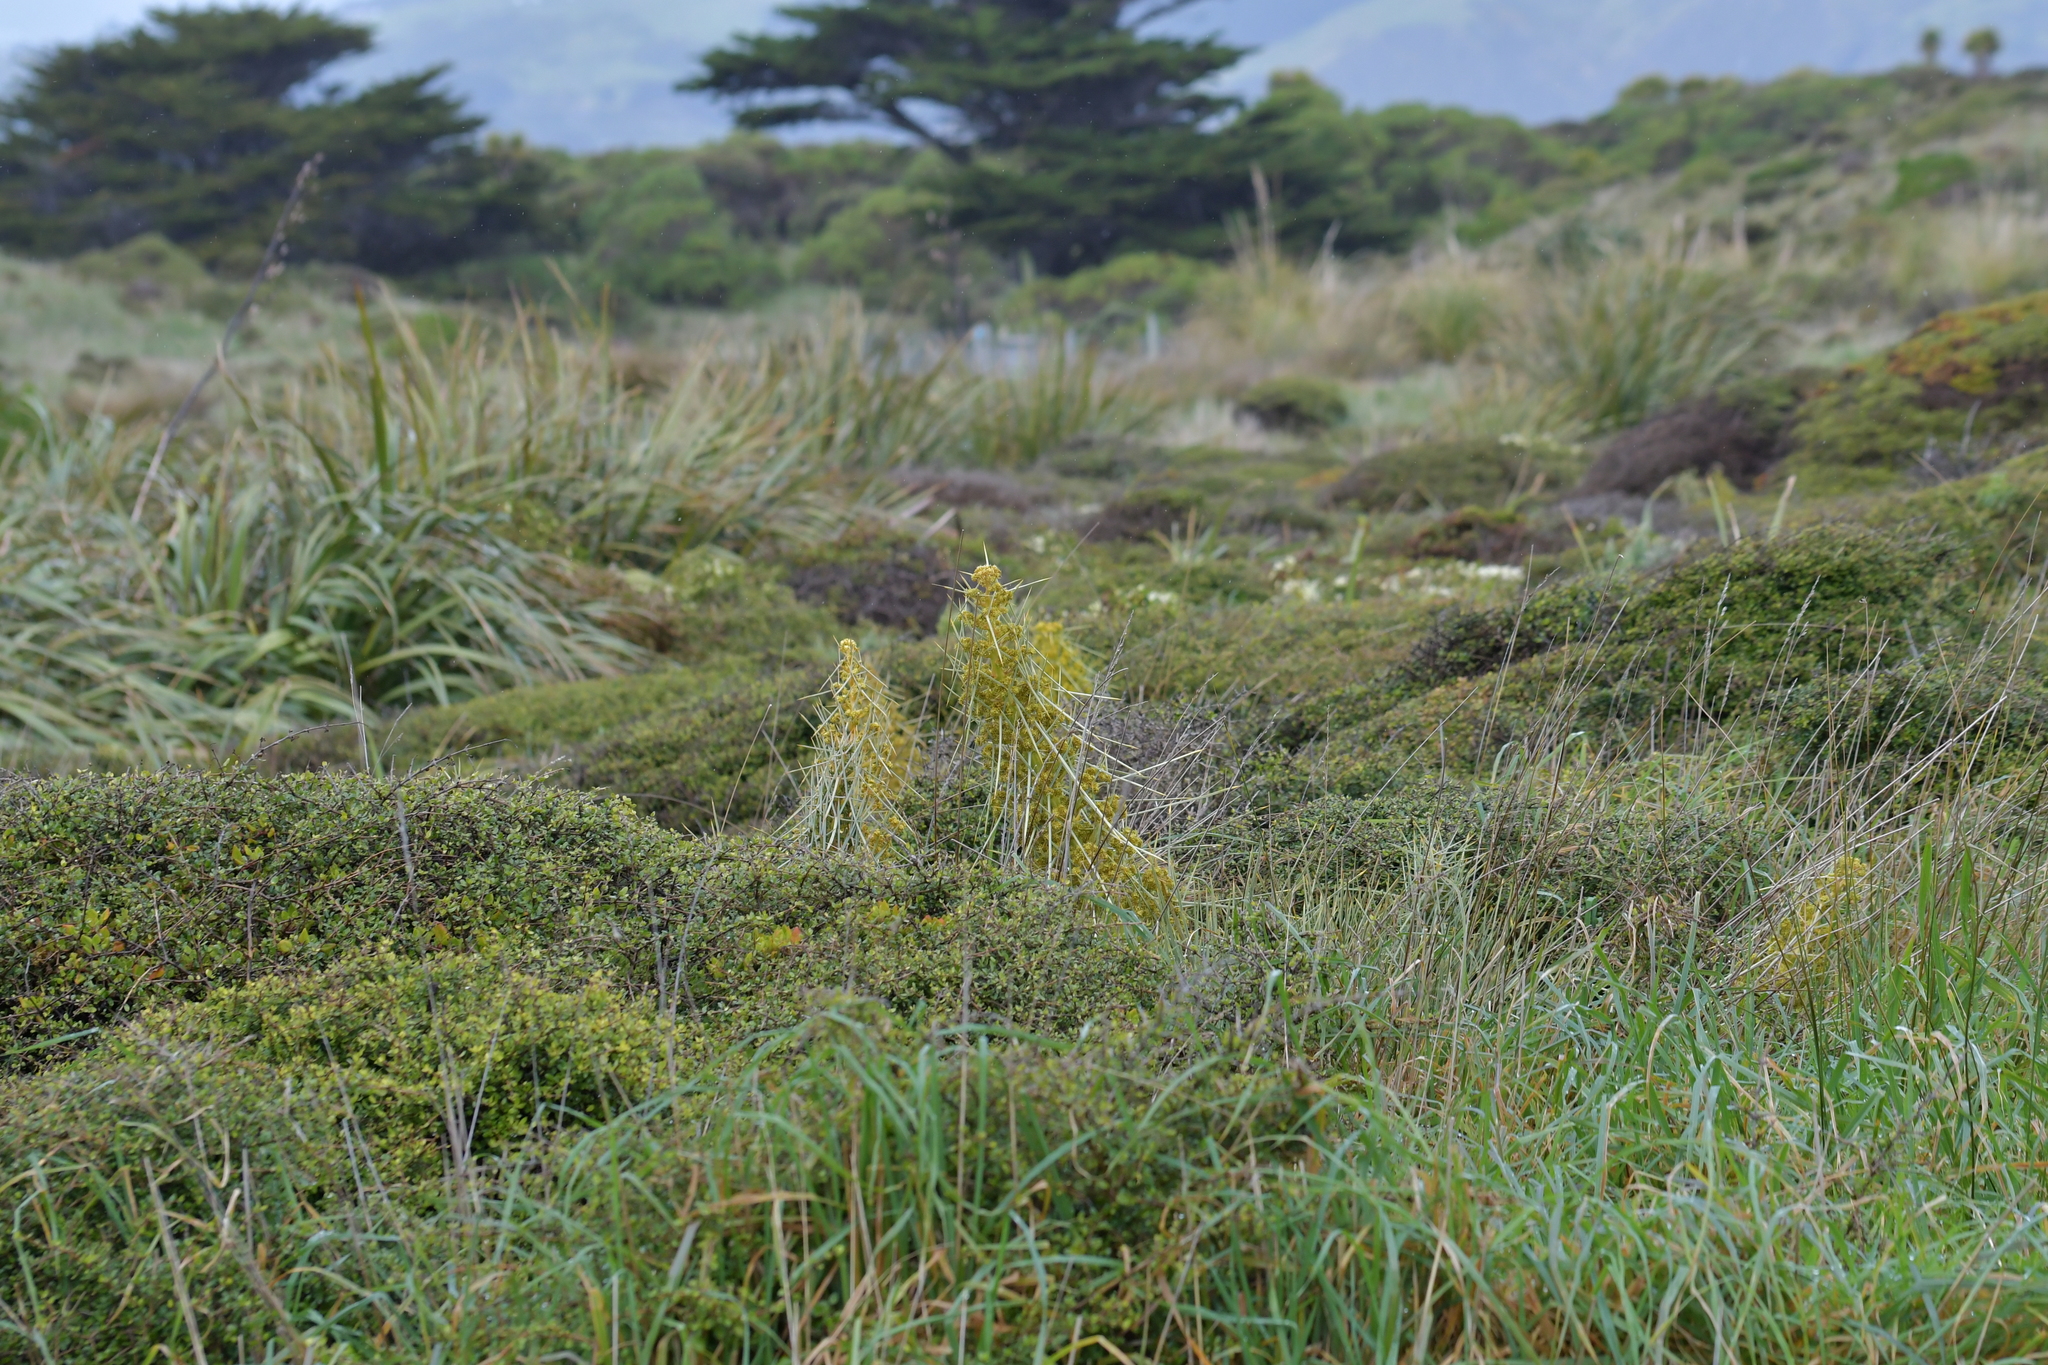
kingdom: Plantae
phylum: Tracheophyta
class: Magnoliopsida
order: Apiales
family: Apiaceae
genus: Aciphylla
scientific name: Aciphylla squarrosa
